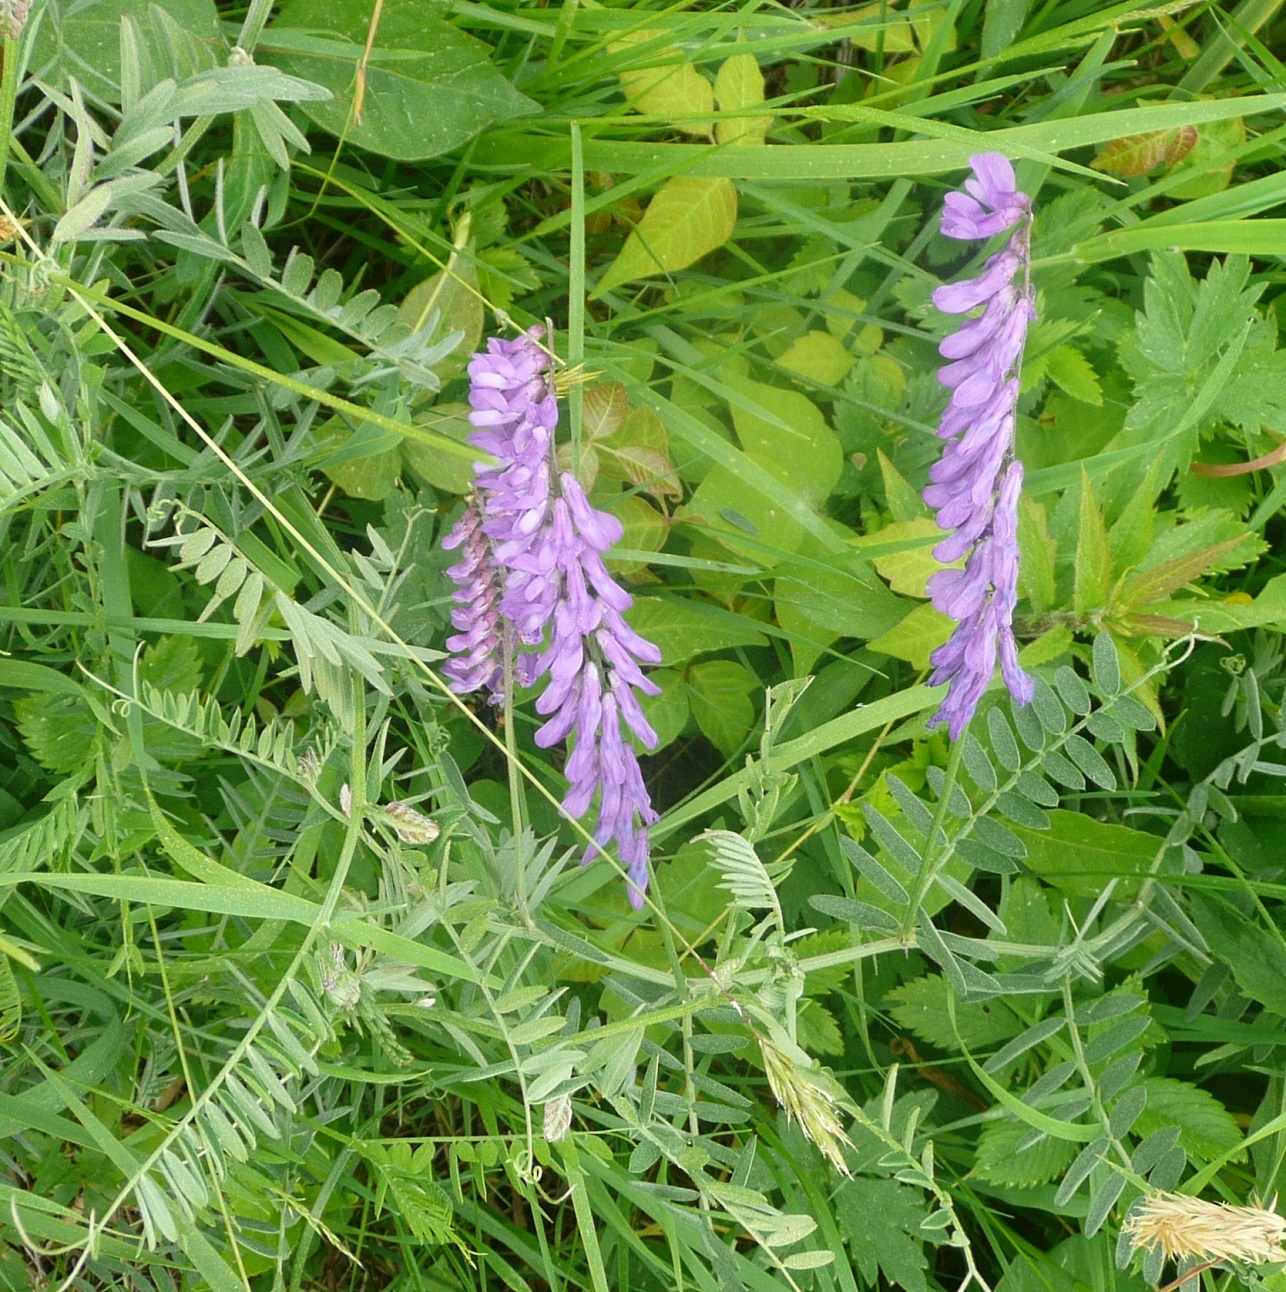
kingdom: Plantae
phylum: Tracheophyta
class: Magnoliopsida
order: Fabales
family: Fabaceae
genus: Vicia
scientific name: Vicia cracca
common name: Bird vetch
